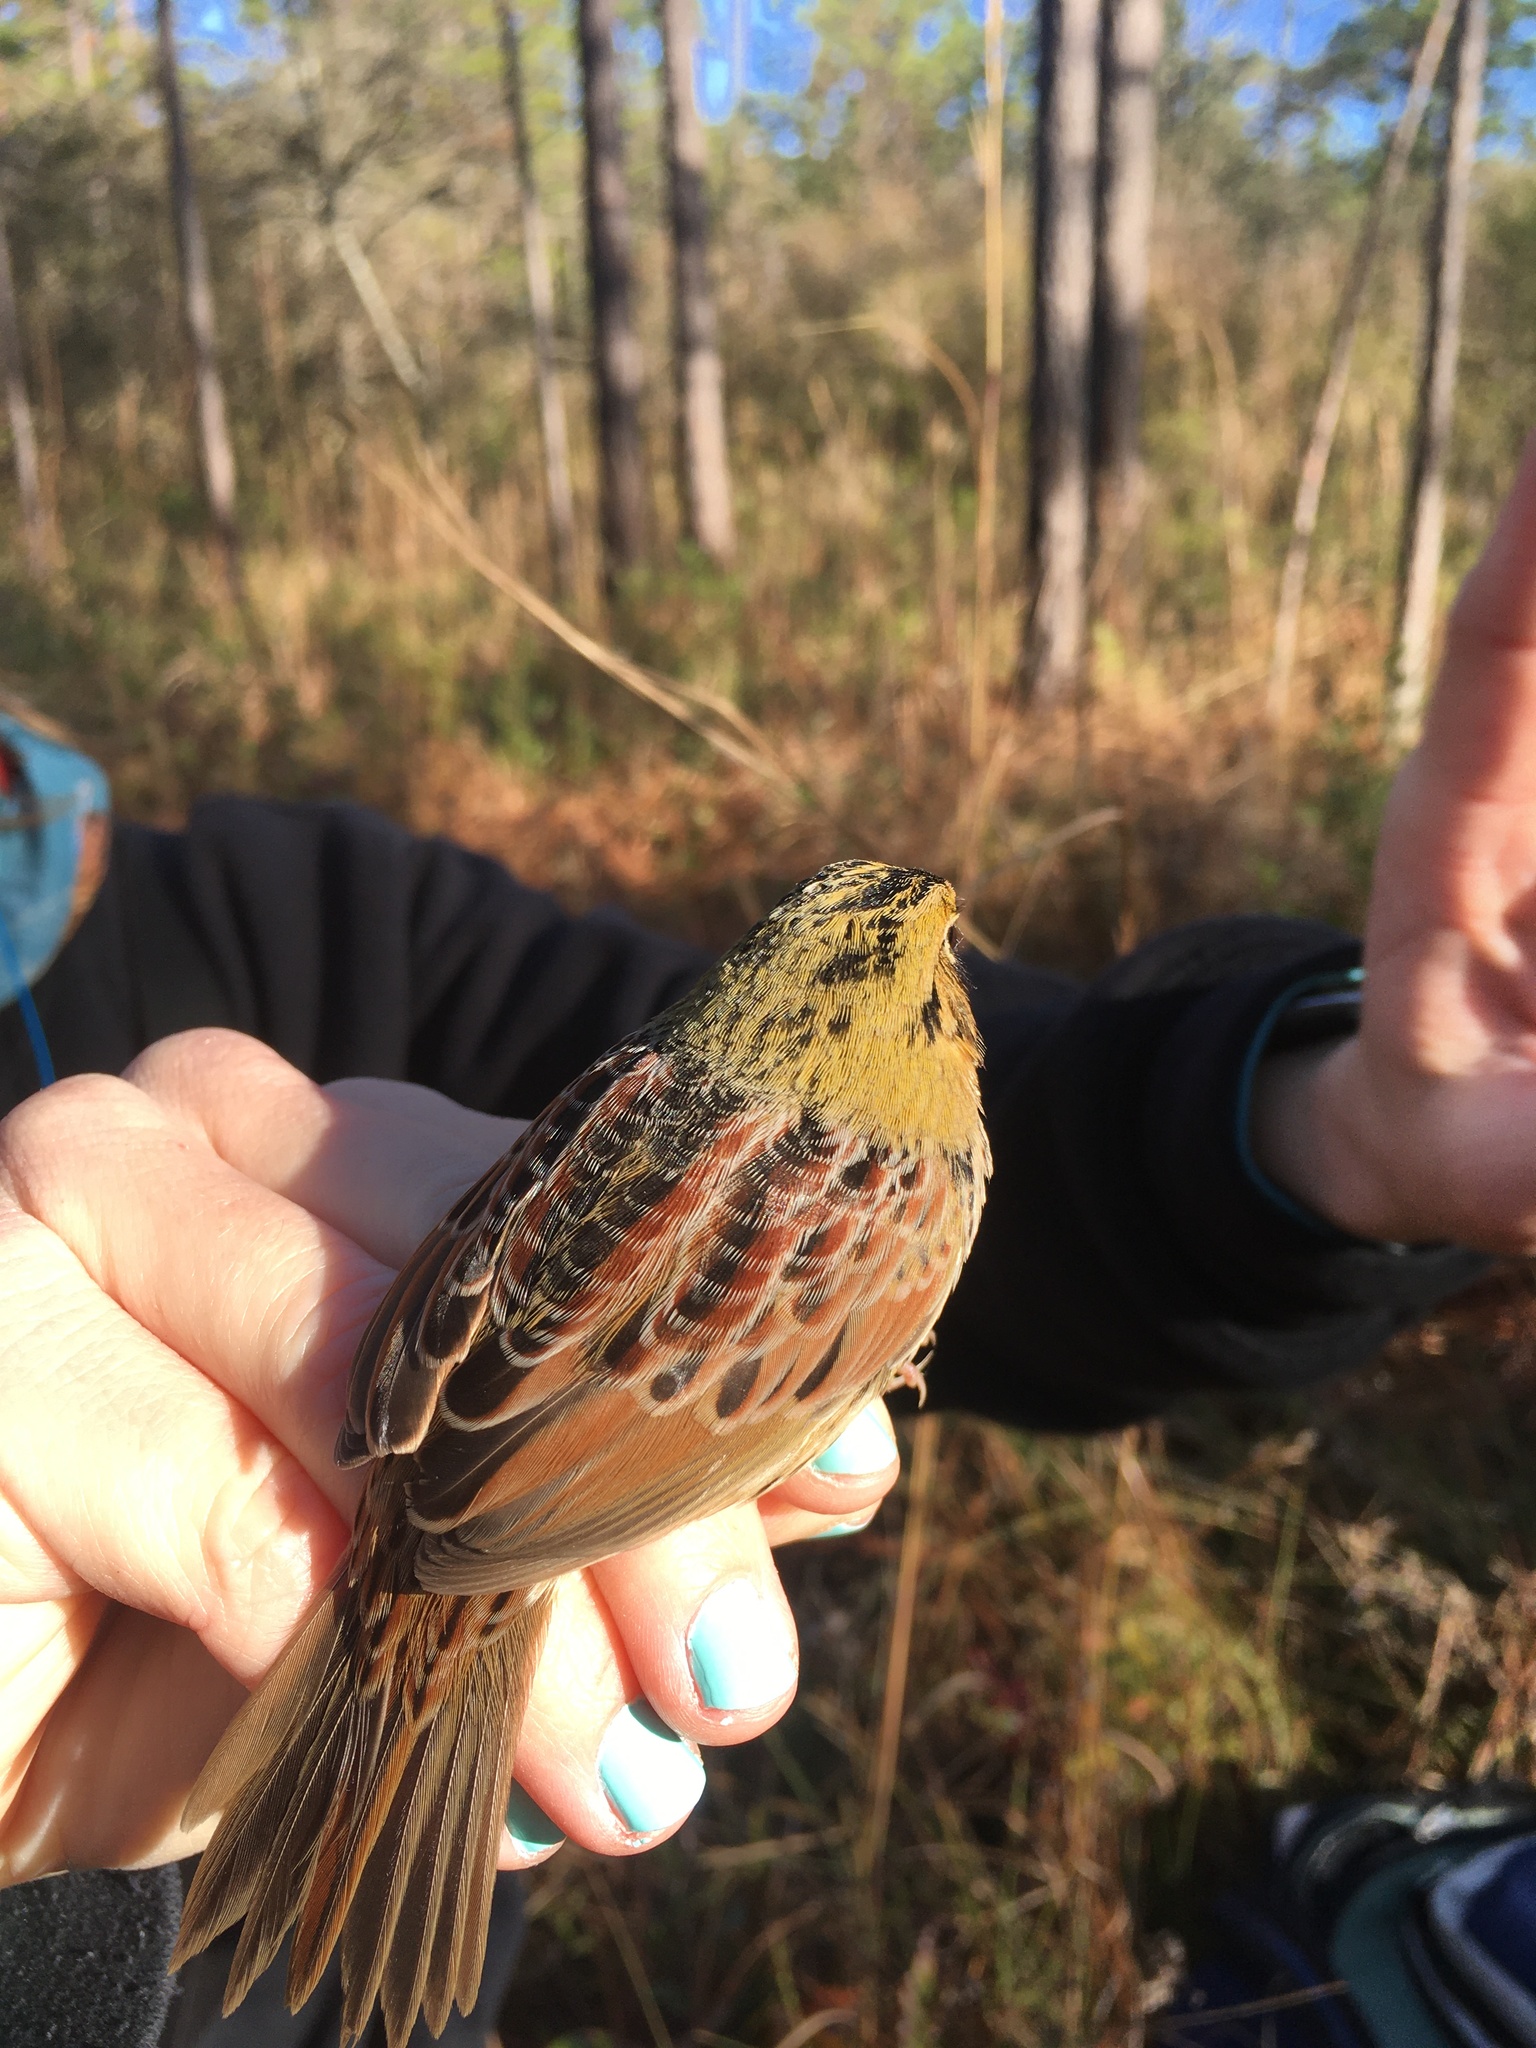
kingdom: Animalia
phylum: Chordata
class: Aves
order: Passeriformes
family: Passerellidae
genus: Centronyx
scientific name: Centronyx henslowii
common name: Henslow's sparrow
